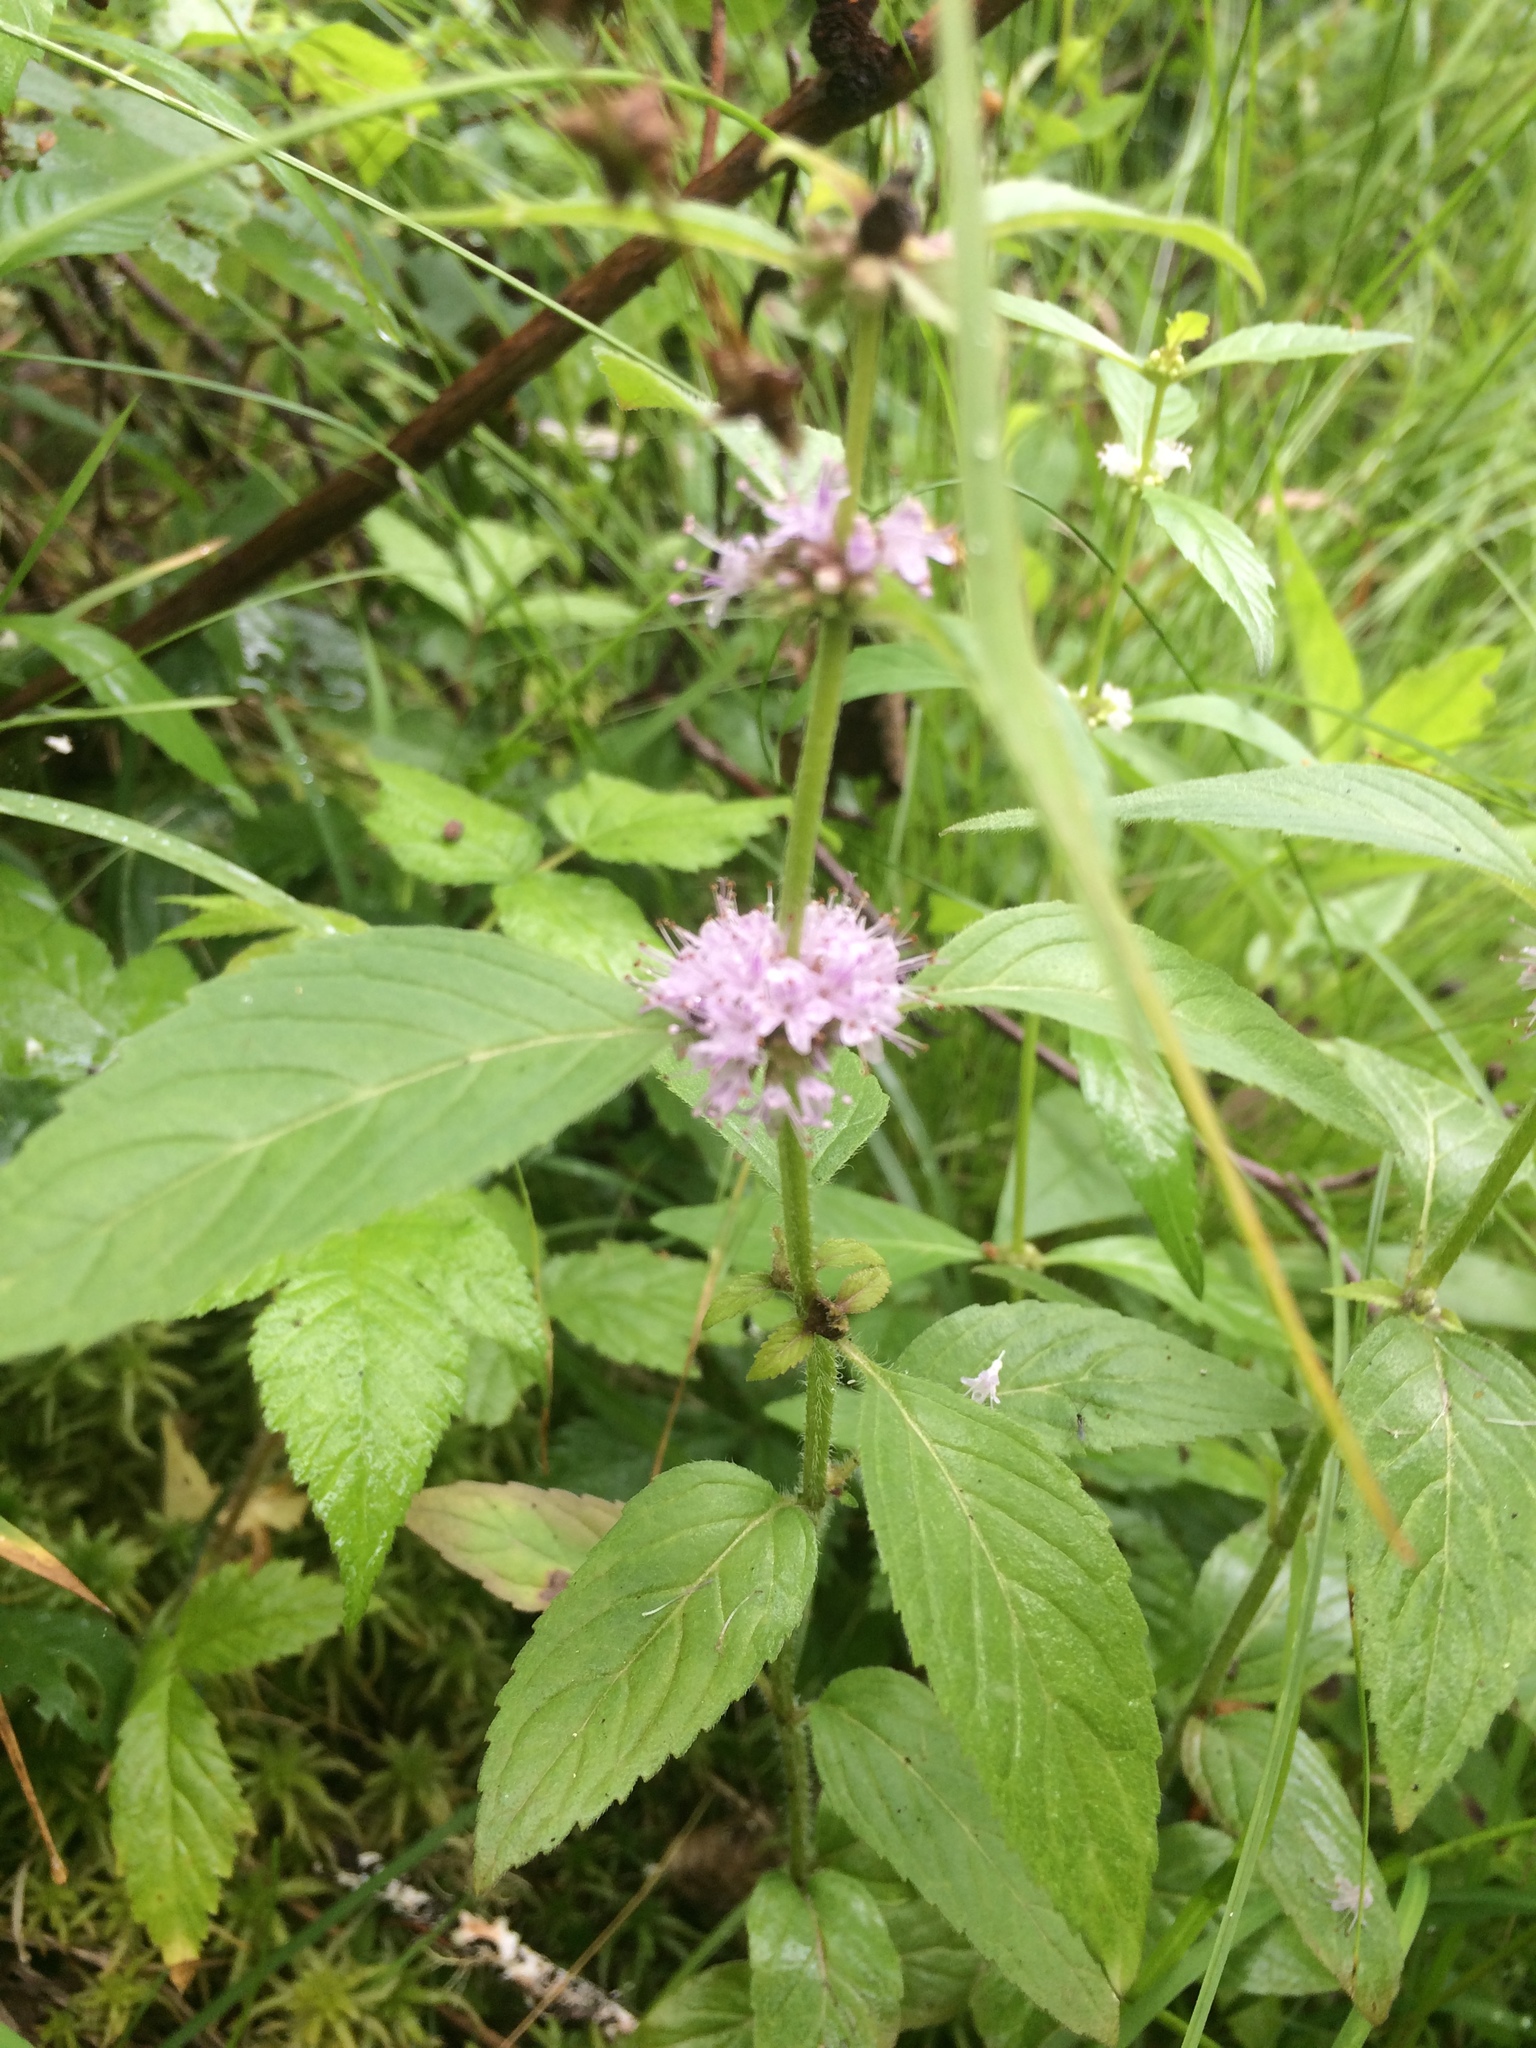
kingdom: Plantae
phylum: Tracheophyta
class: Magnoliopsida
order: Lamiales
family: Lamiaceae
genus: Mentha
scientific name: Mentha canadensis
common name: American corn mint
